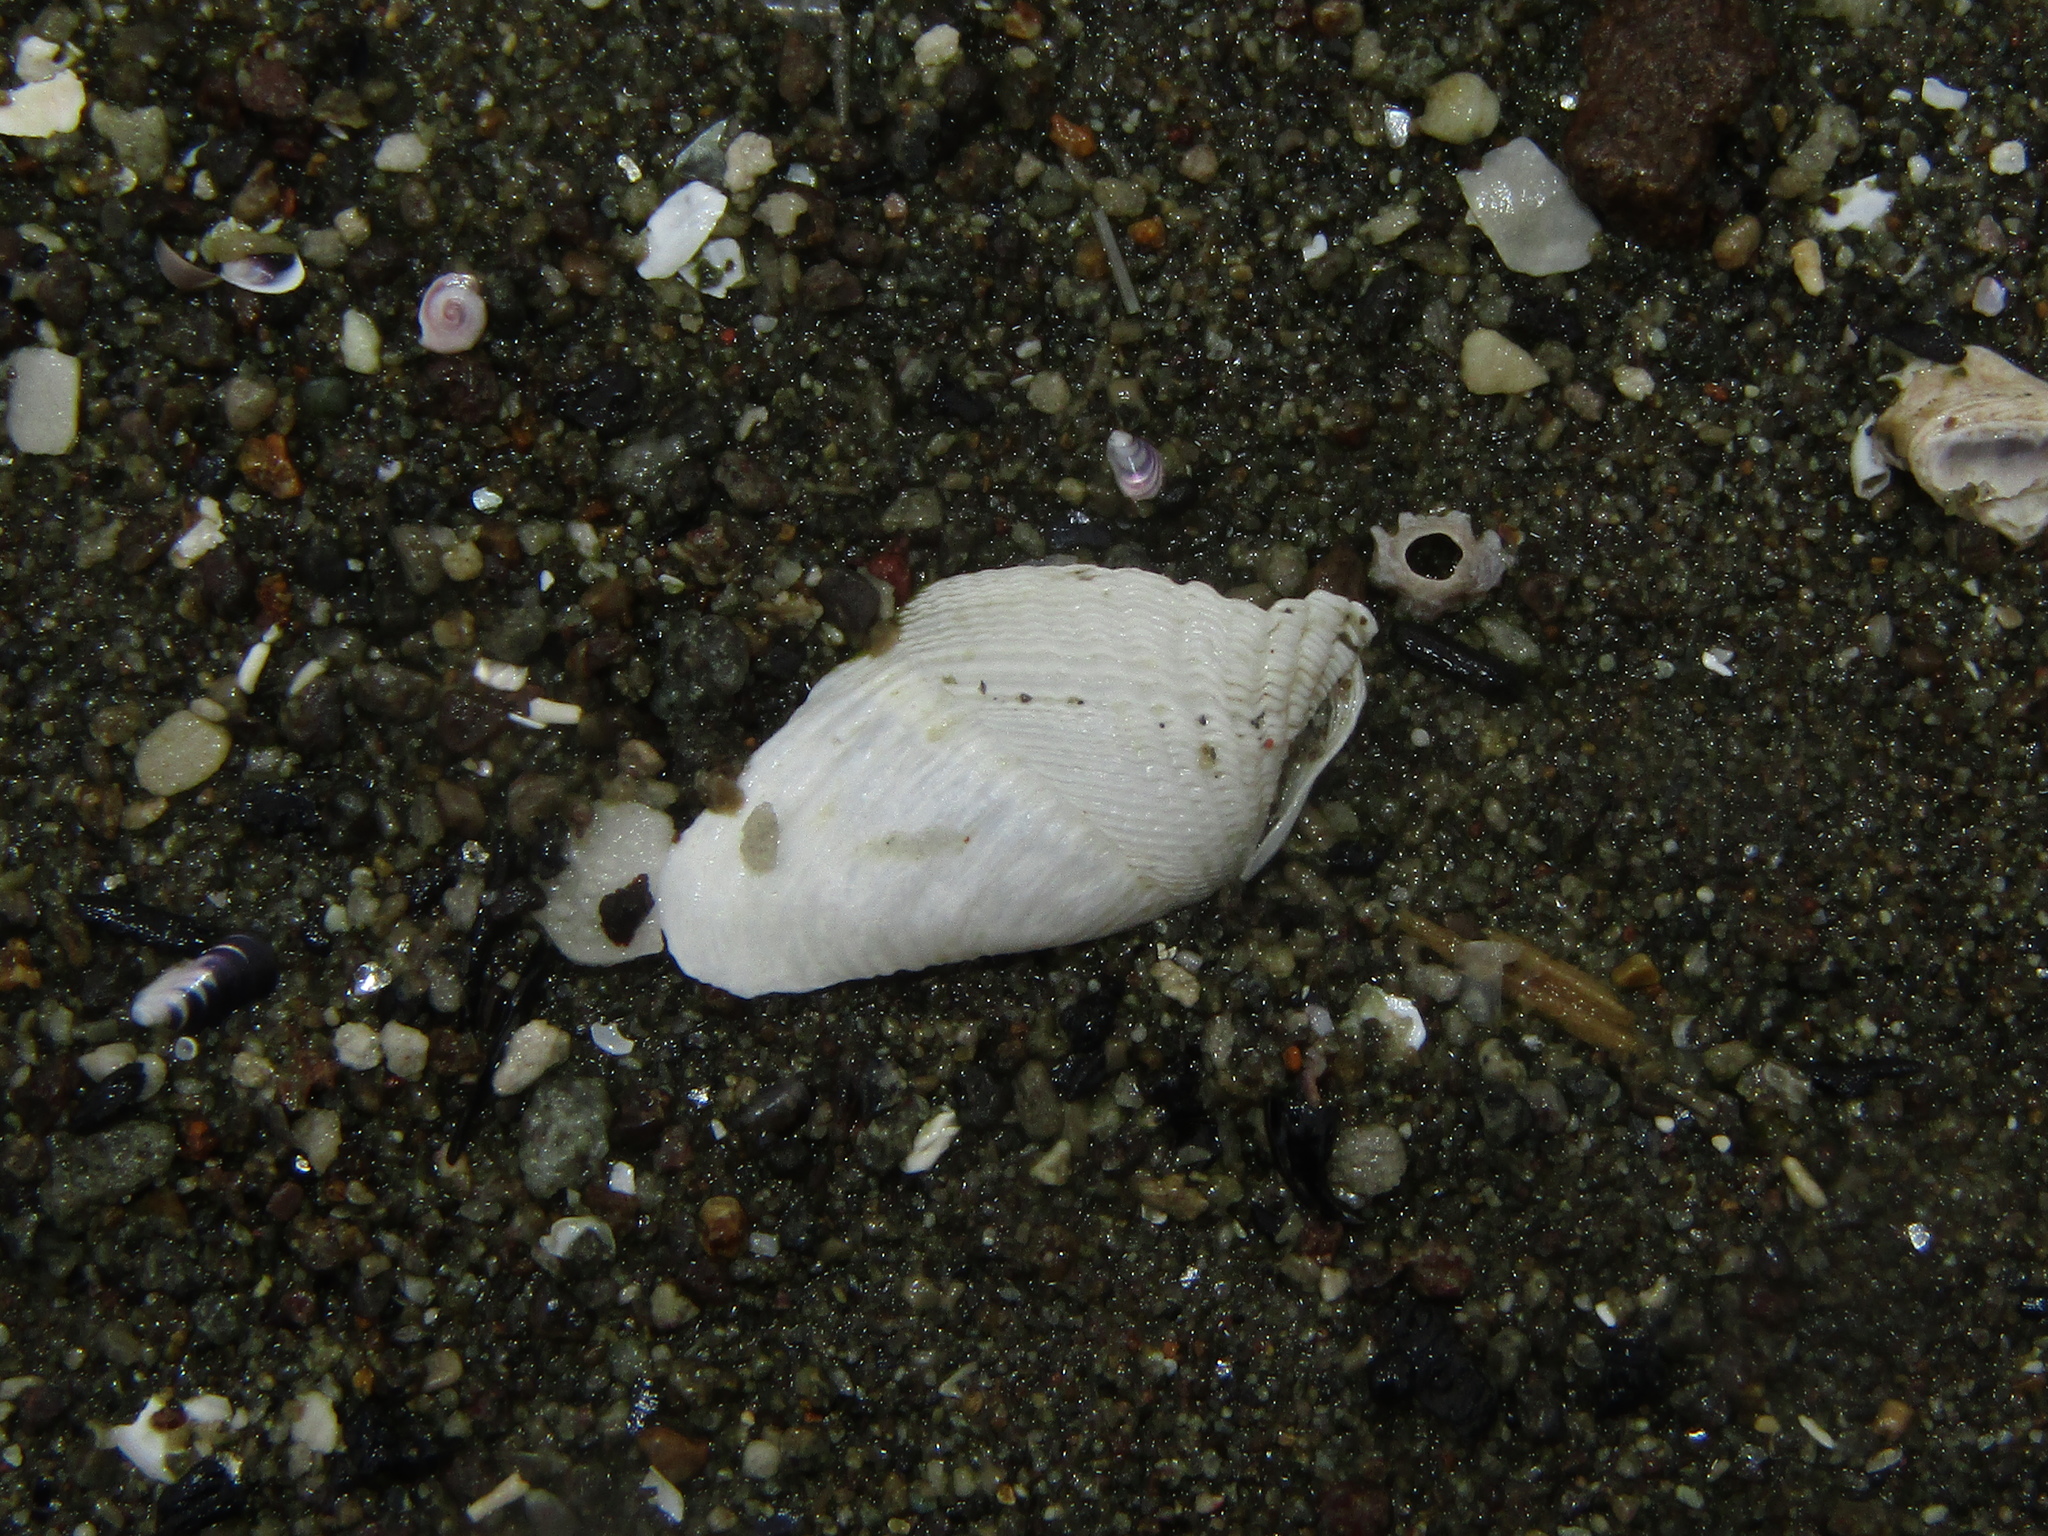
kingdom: Animalia
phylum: Mollusca
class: Bivalvia
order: Myida
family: Pholadidae
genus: Pholadidea
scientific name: Pholadidea tridens
